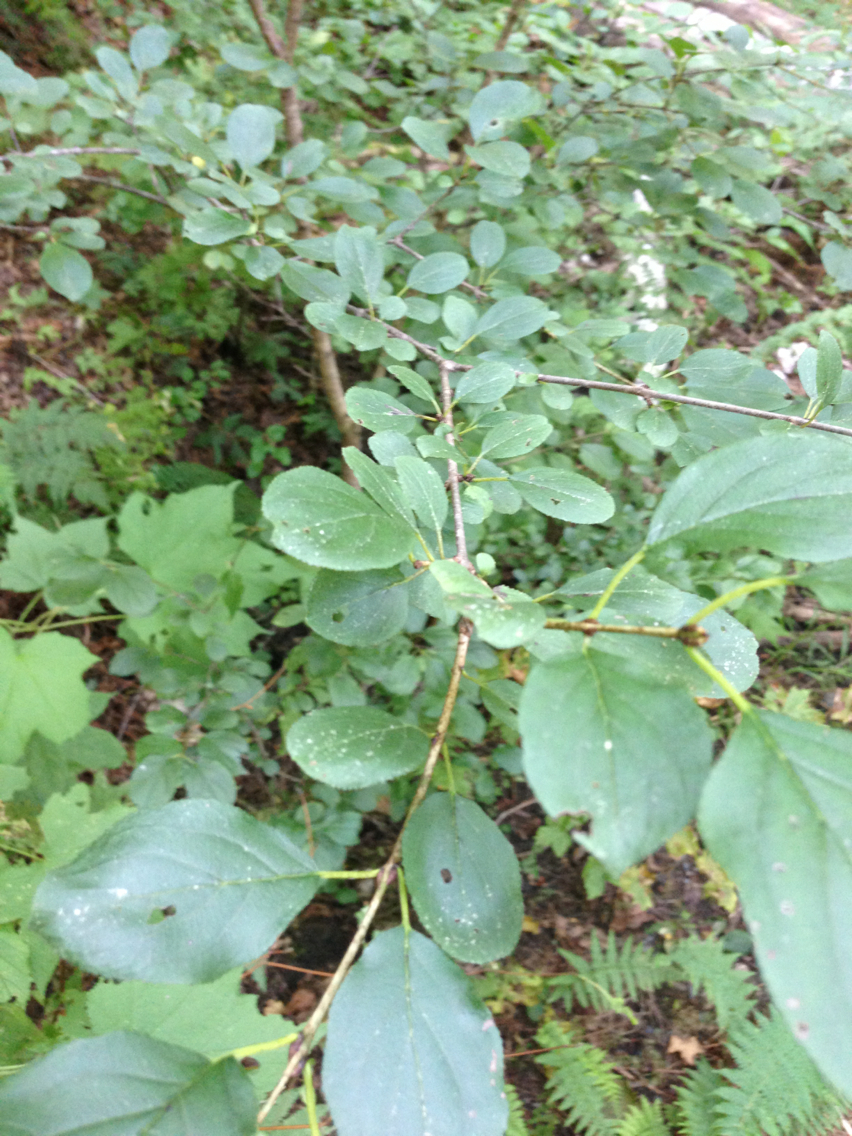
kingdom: Plantae
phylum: Tracheophyta
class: Magnoliopsida
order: Rosales
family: Rhamnaceae
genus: Rhamnus
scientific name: Rhamnus cathartica
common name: Common buckthorn
